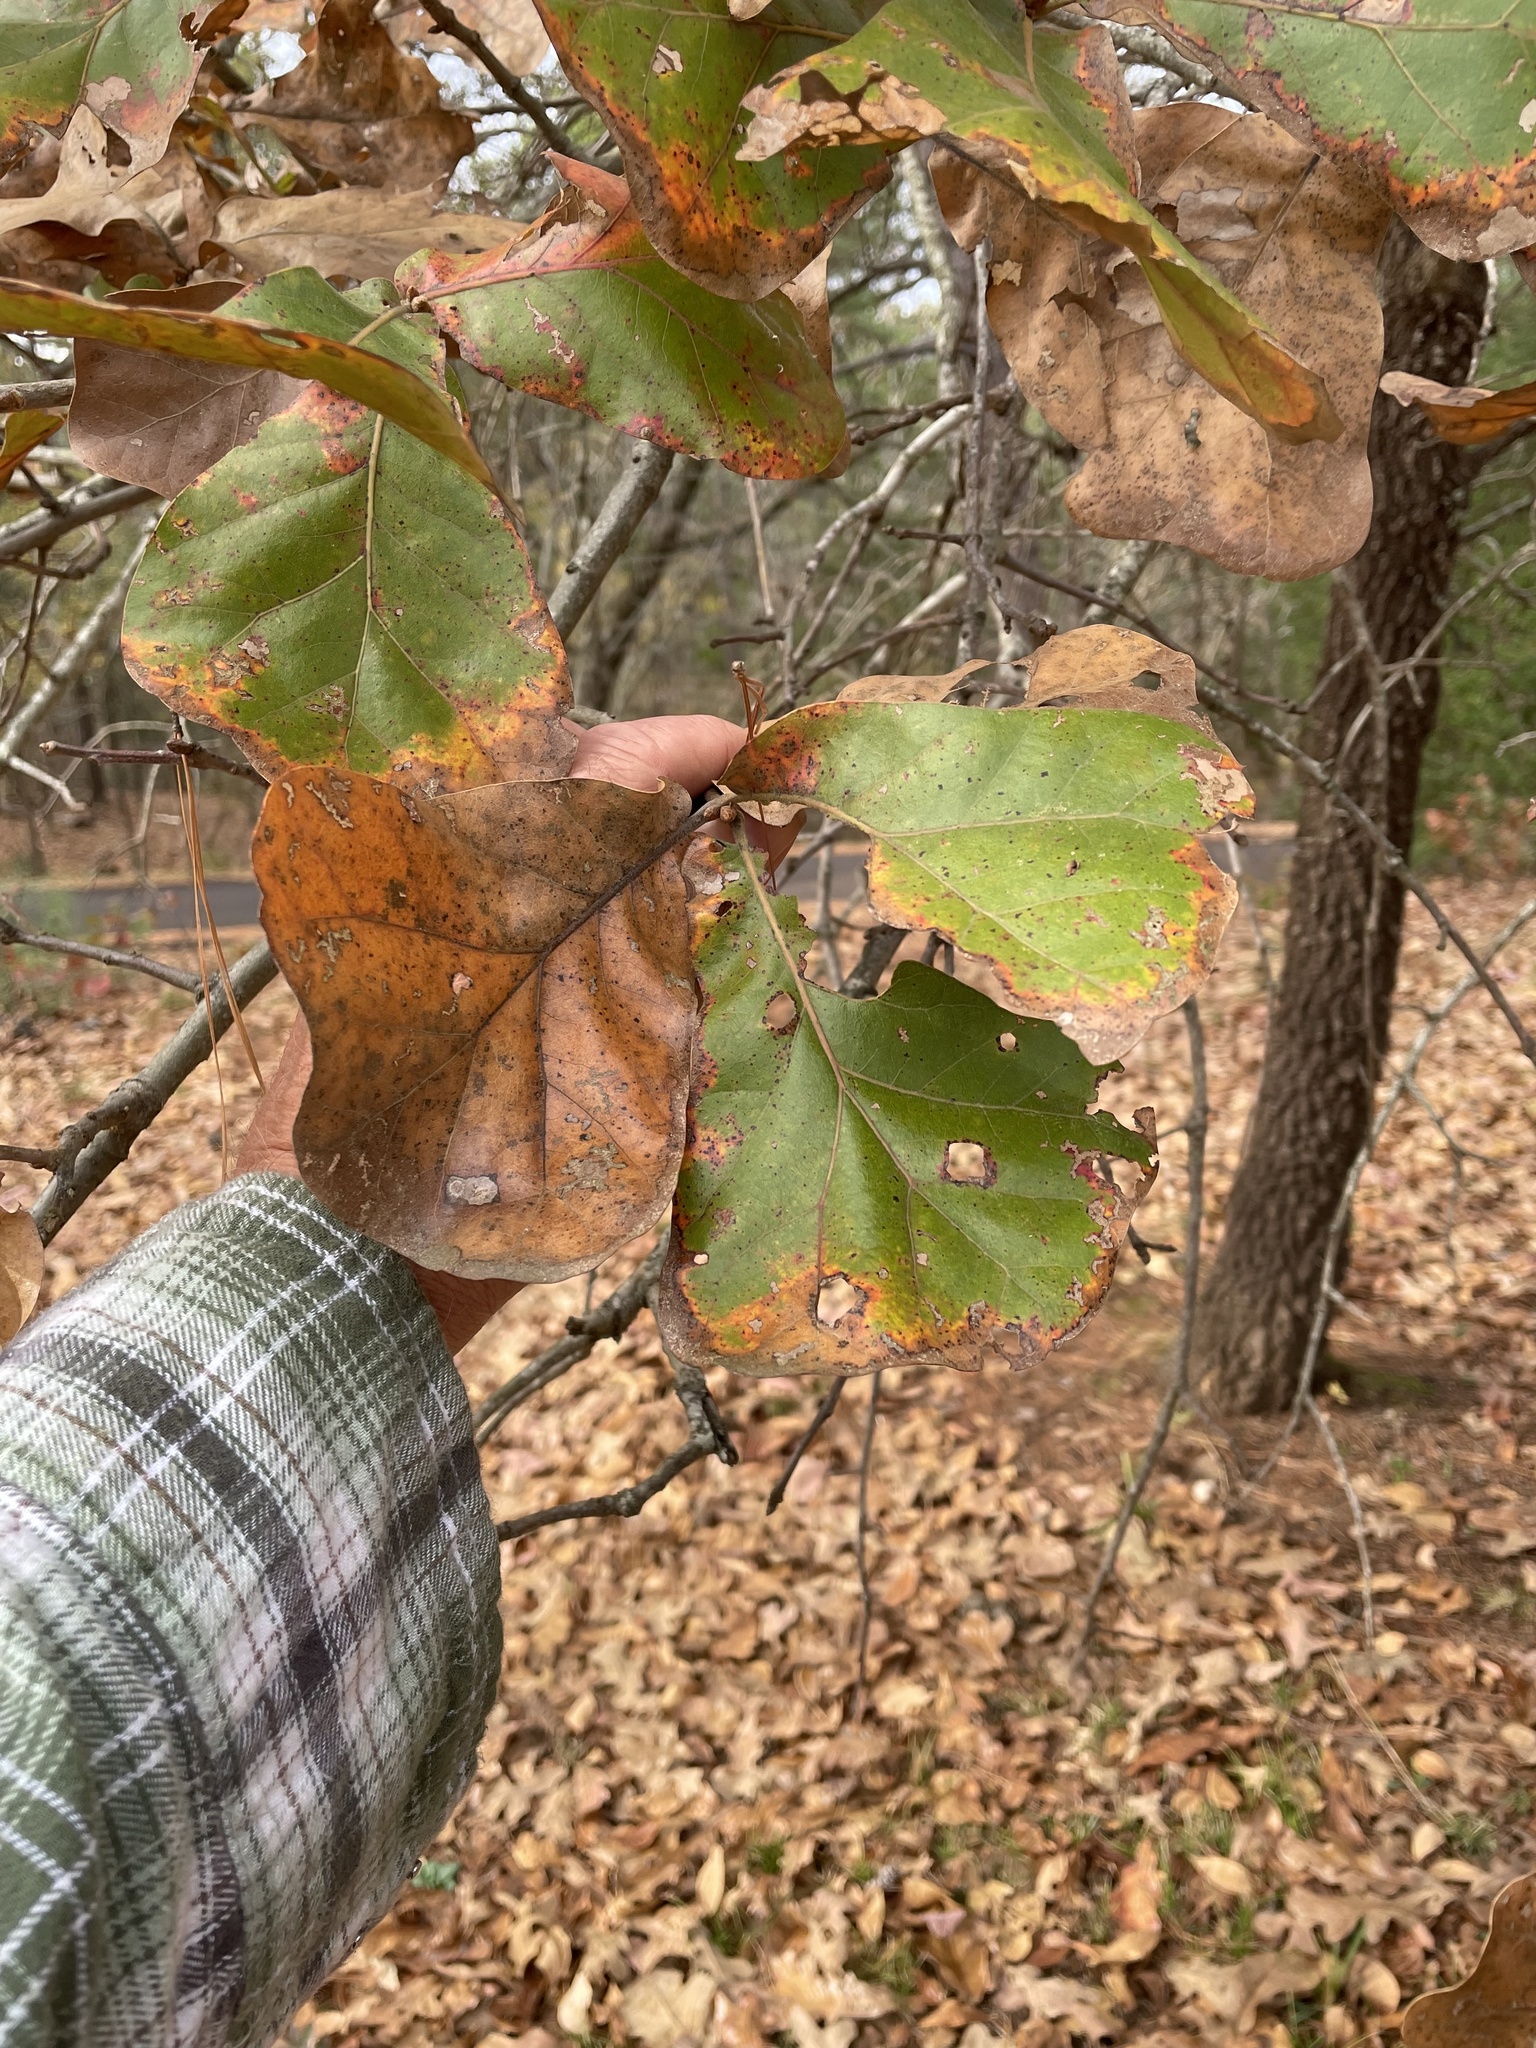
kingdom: Plantae
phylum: Tracheophyta
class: Magnoliopsida
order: Fagales
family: Fagaceae
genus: Quercus
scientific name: Quercus marilandica
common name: Blackjack oak
